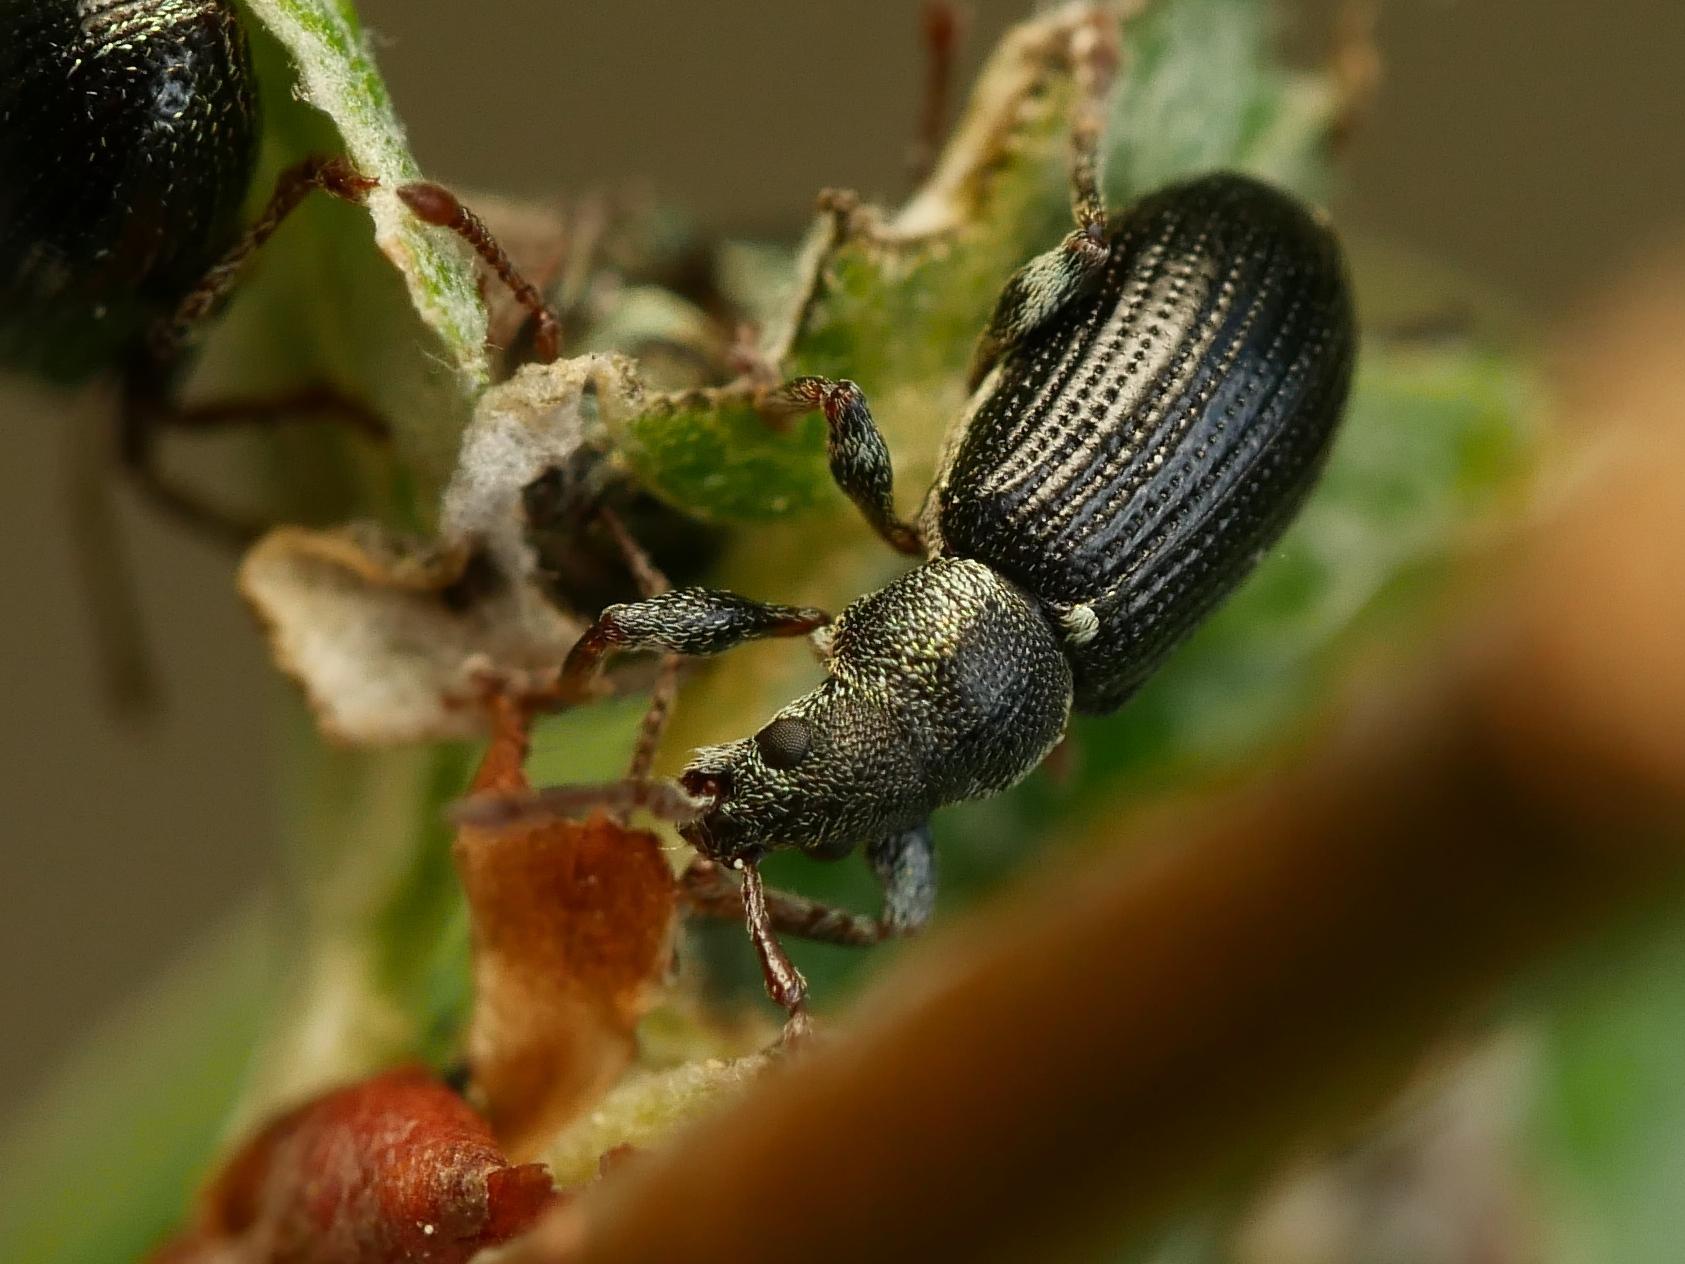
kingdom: Animalia
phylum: Arthropoda
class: Insecta
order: Coleoptera
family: Curculionidae
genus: Phyllobius
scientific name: Phyllobius viridicollis
